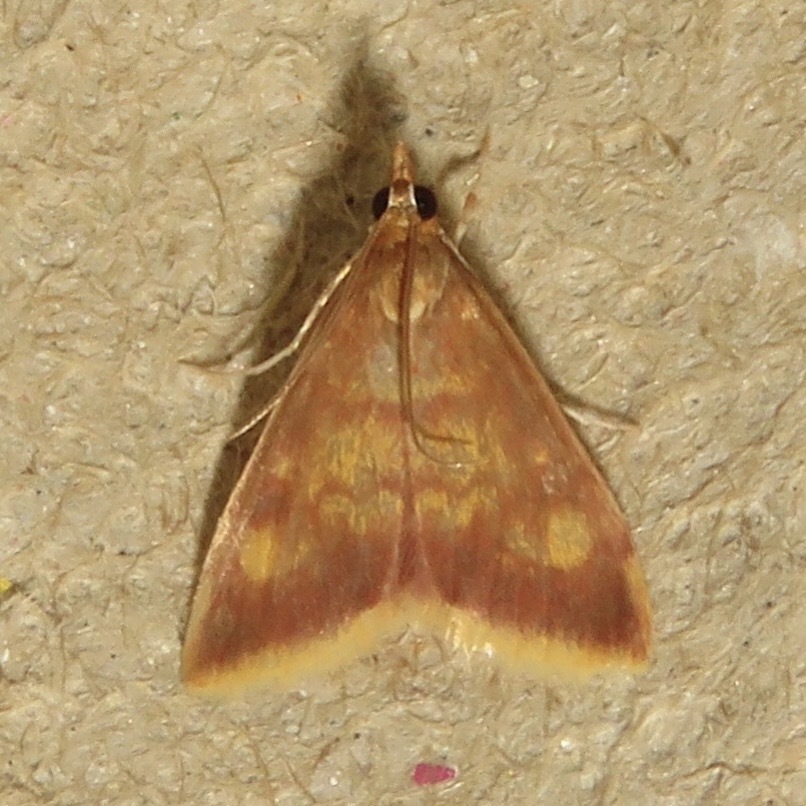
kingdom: Animalia
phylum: Arthropoda
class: Insecta
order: Lepidoptera
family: Crambidae
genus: Pyrausta
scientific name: Pyrausta acrionalis
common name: Mint-loving pyrausta moth
